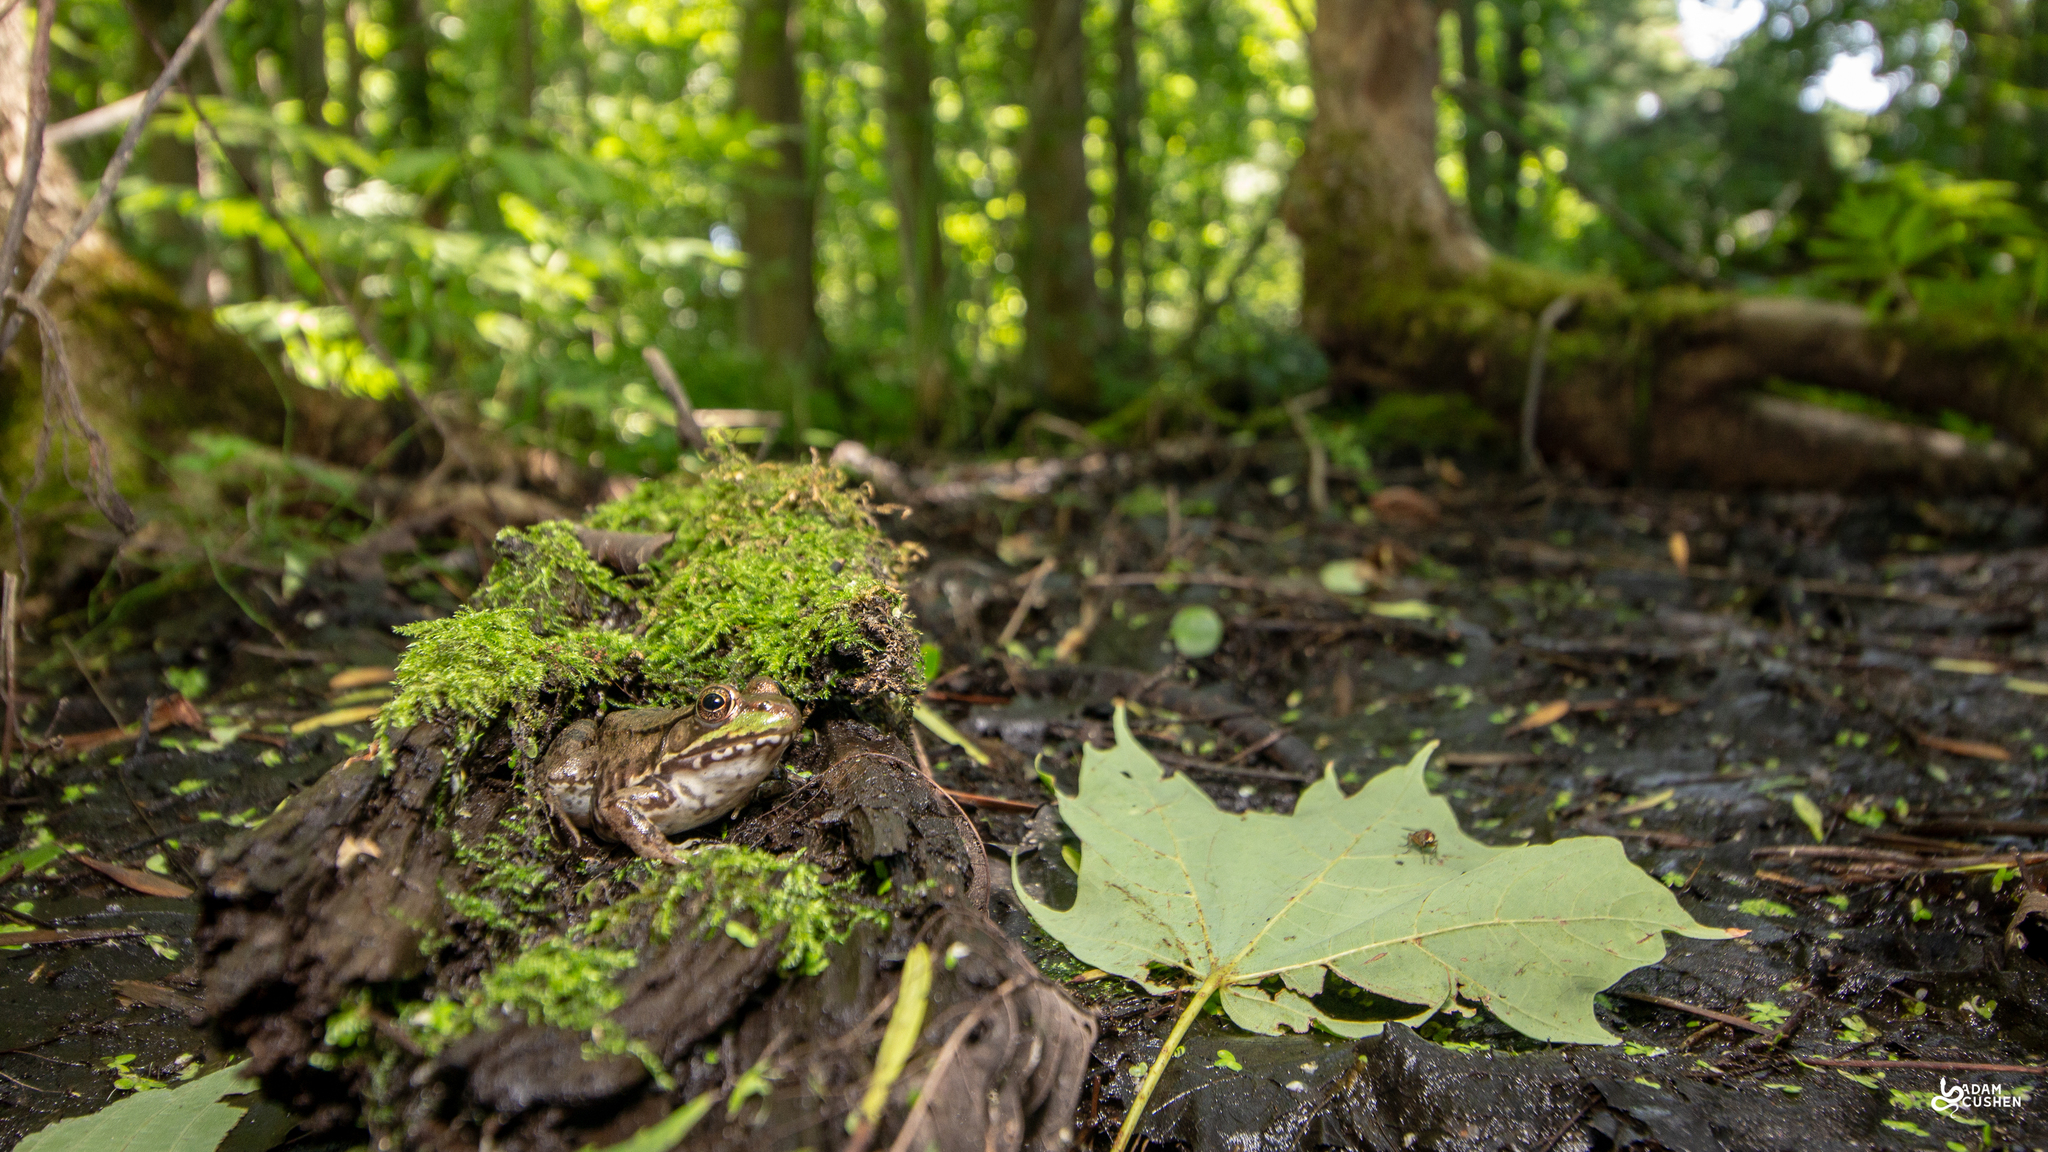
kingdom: Animalia
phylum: Chordata
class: Amphibia
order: Anura
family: Ranidae
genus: Lithobates
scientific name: Lithobates clamitans
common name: Green frog
